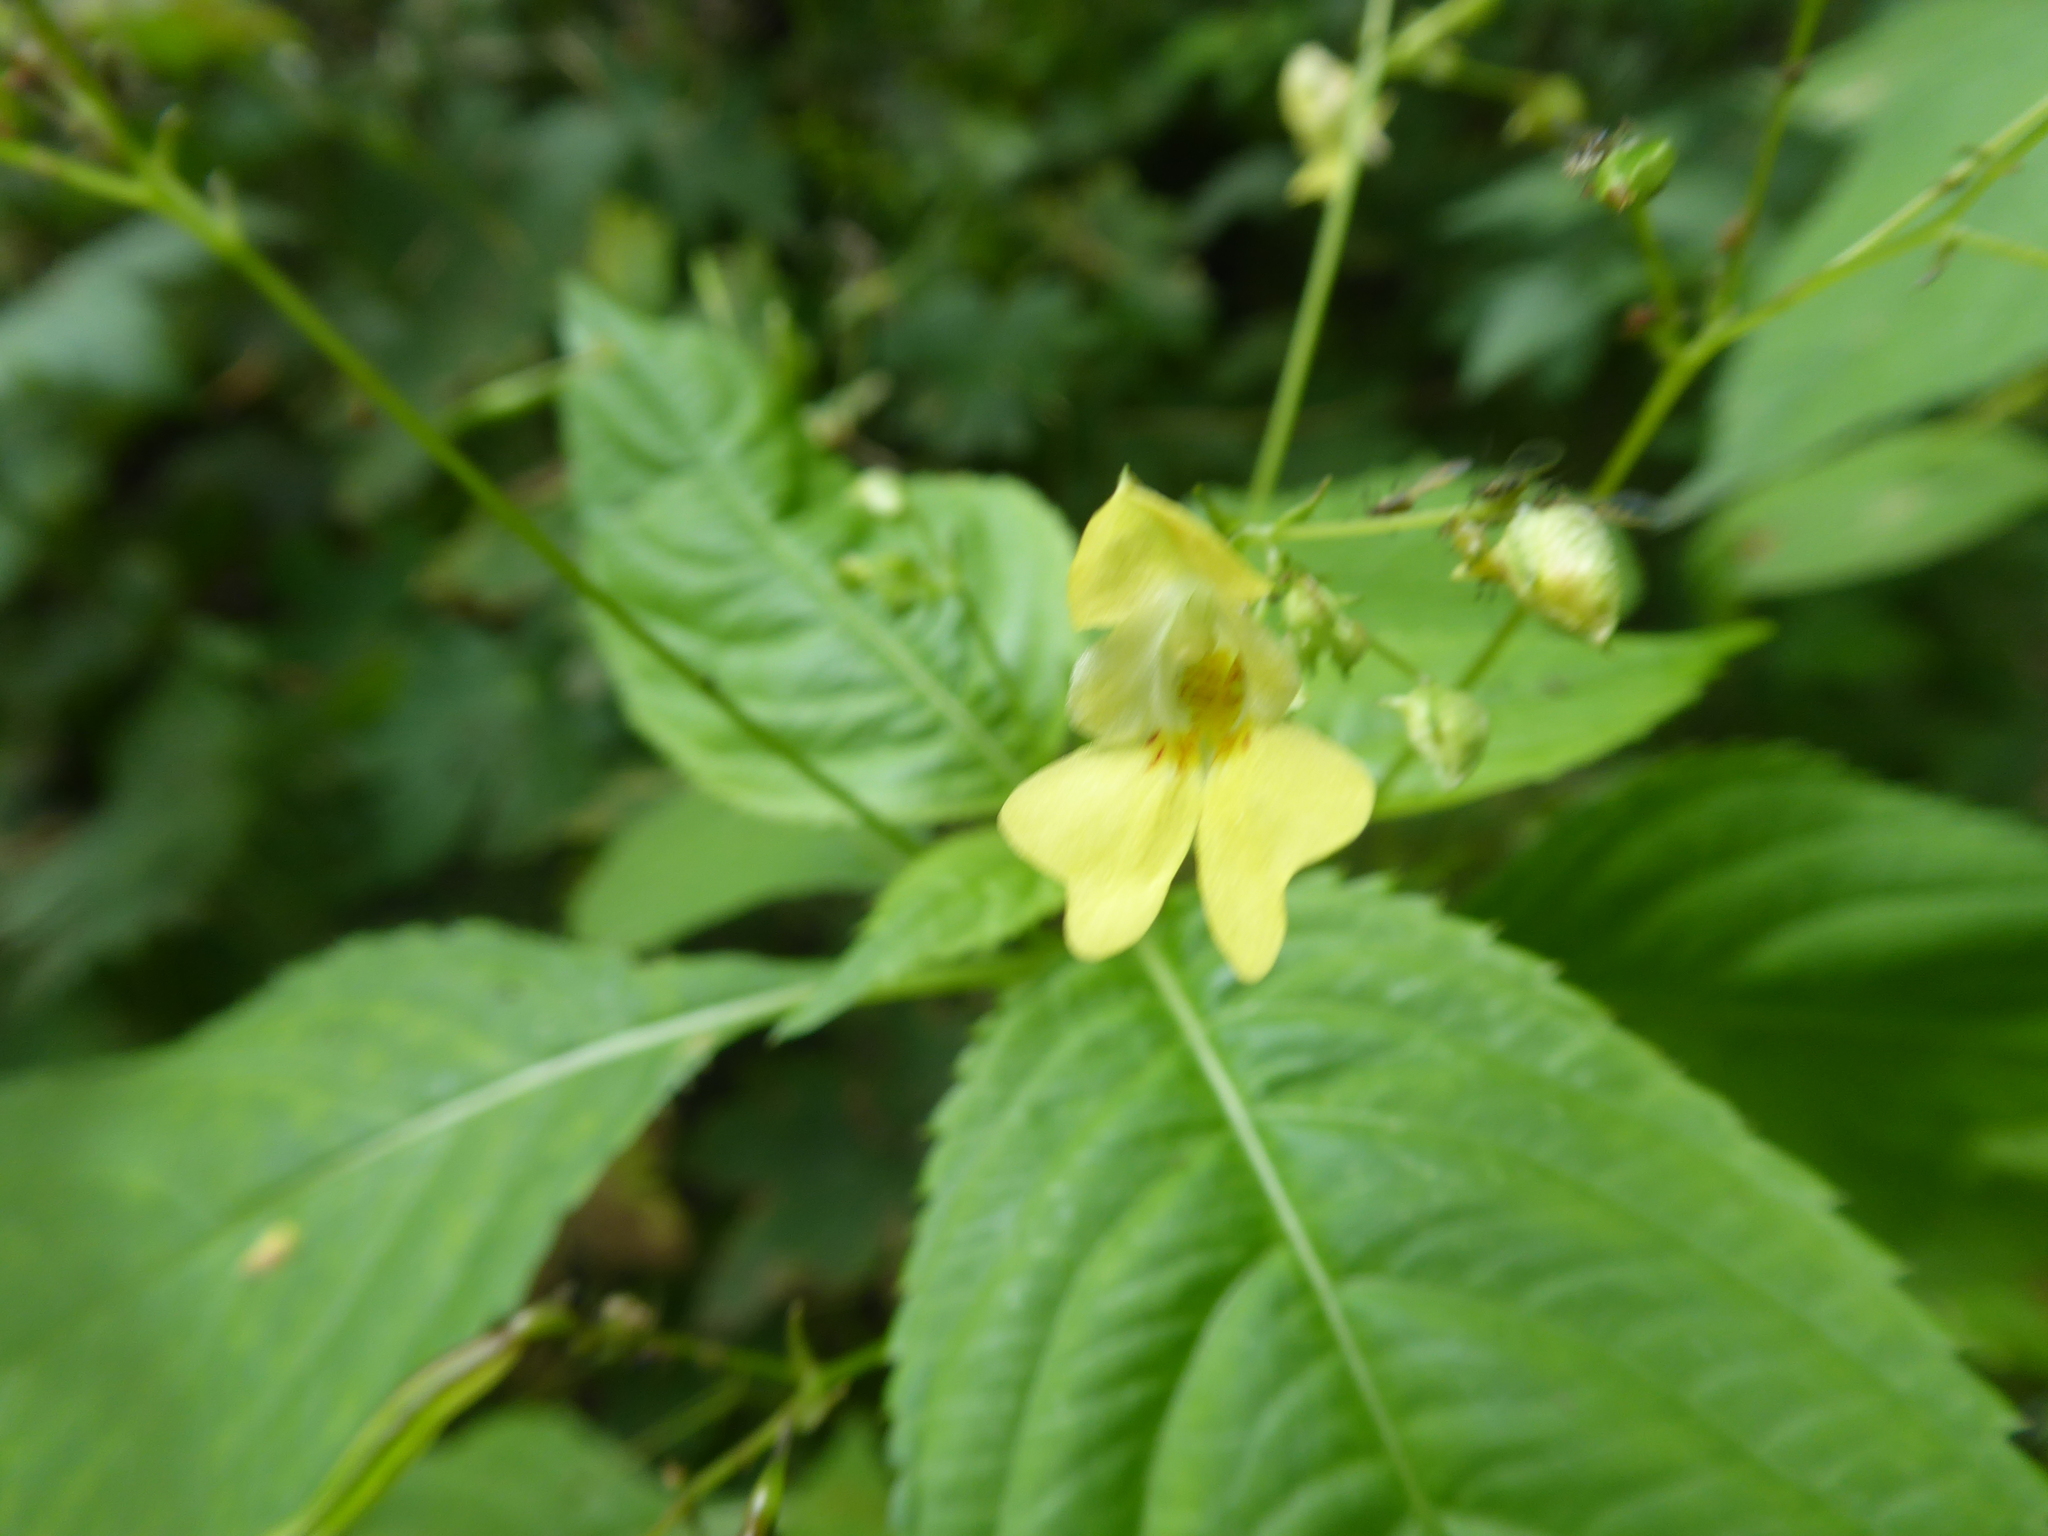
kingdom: Plantae
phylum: Tracheophyta
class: Magnoliopsida
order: Ericales
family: Balsaminaceae
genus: Impatiens
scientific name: Impatiens parviflora
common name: Small balsam
